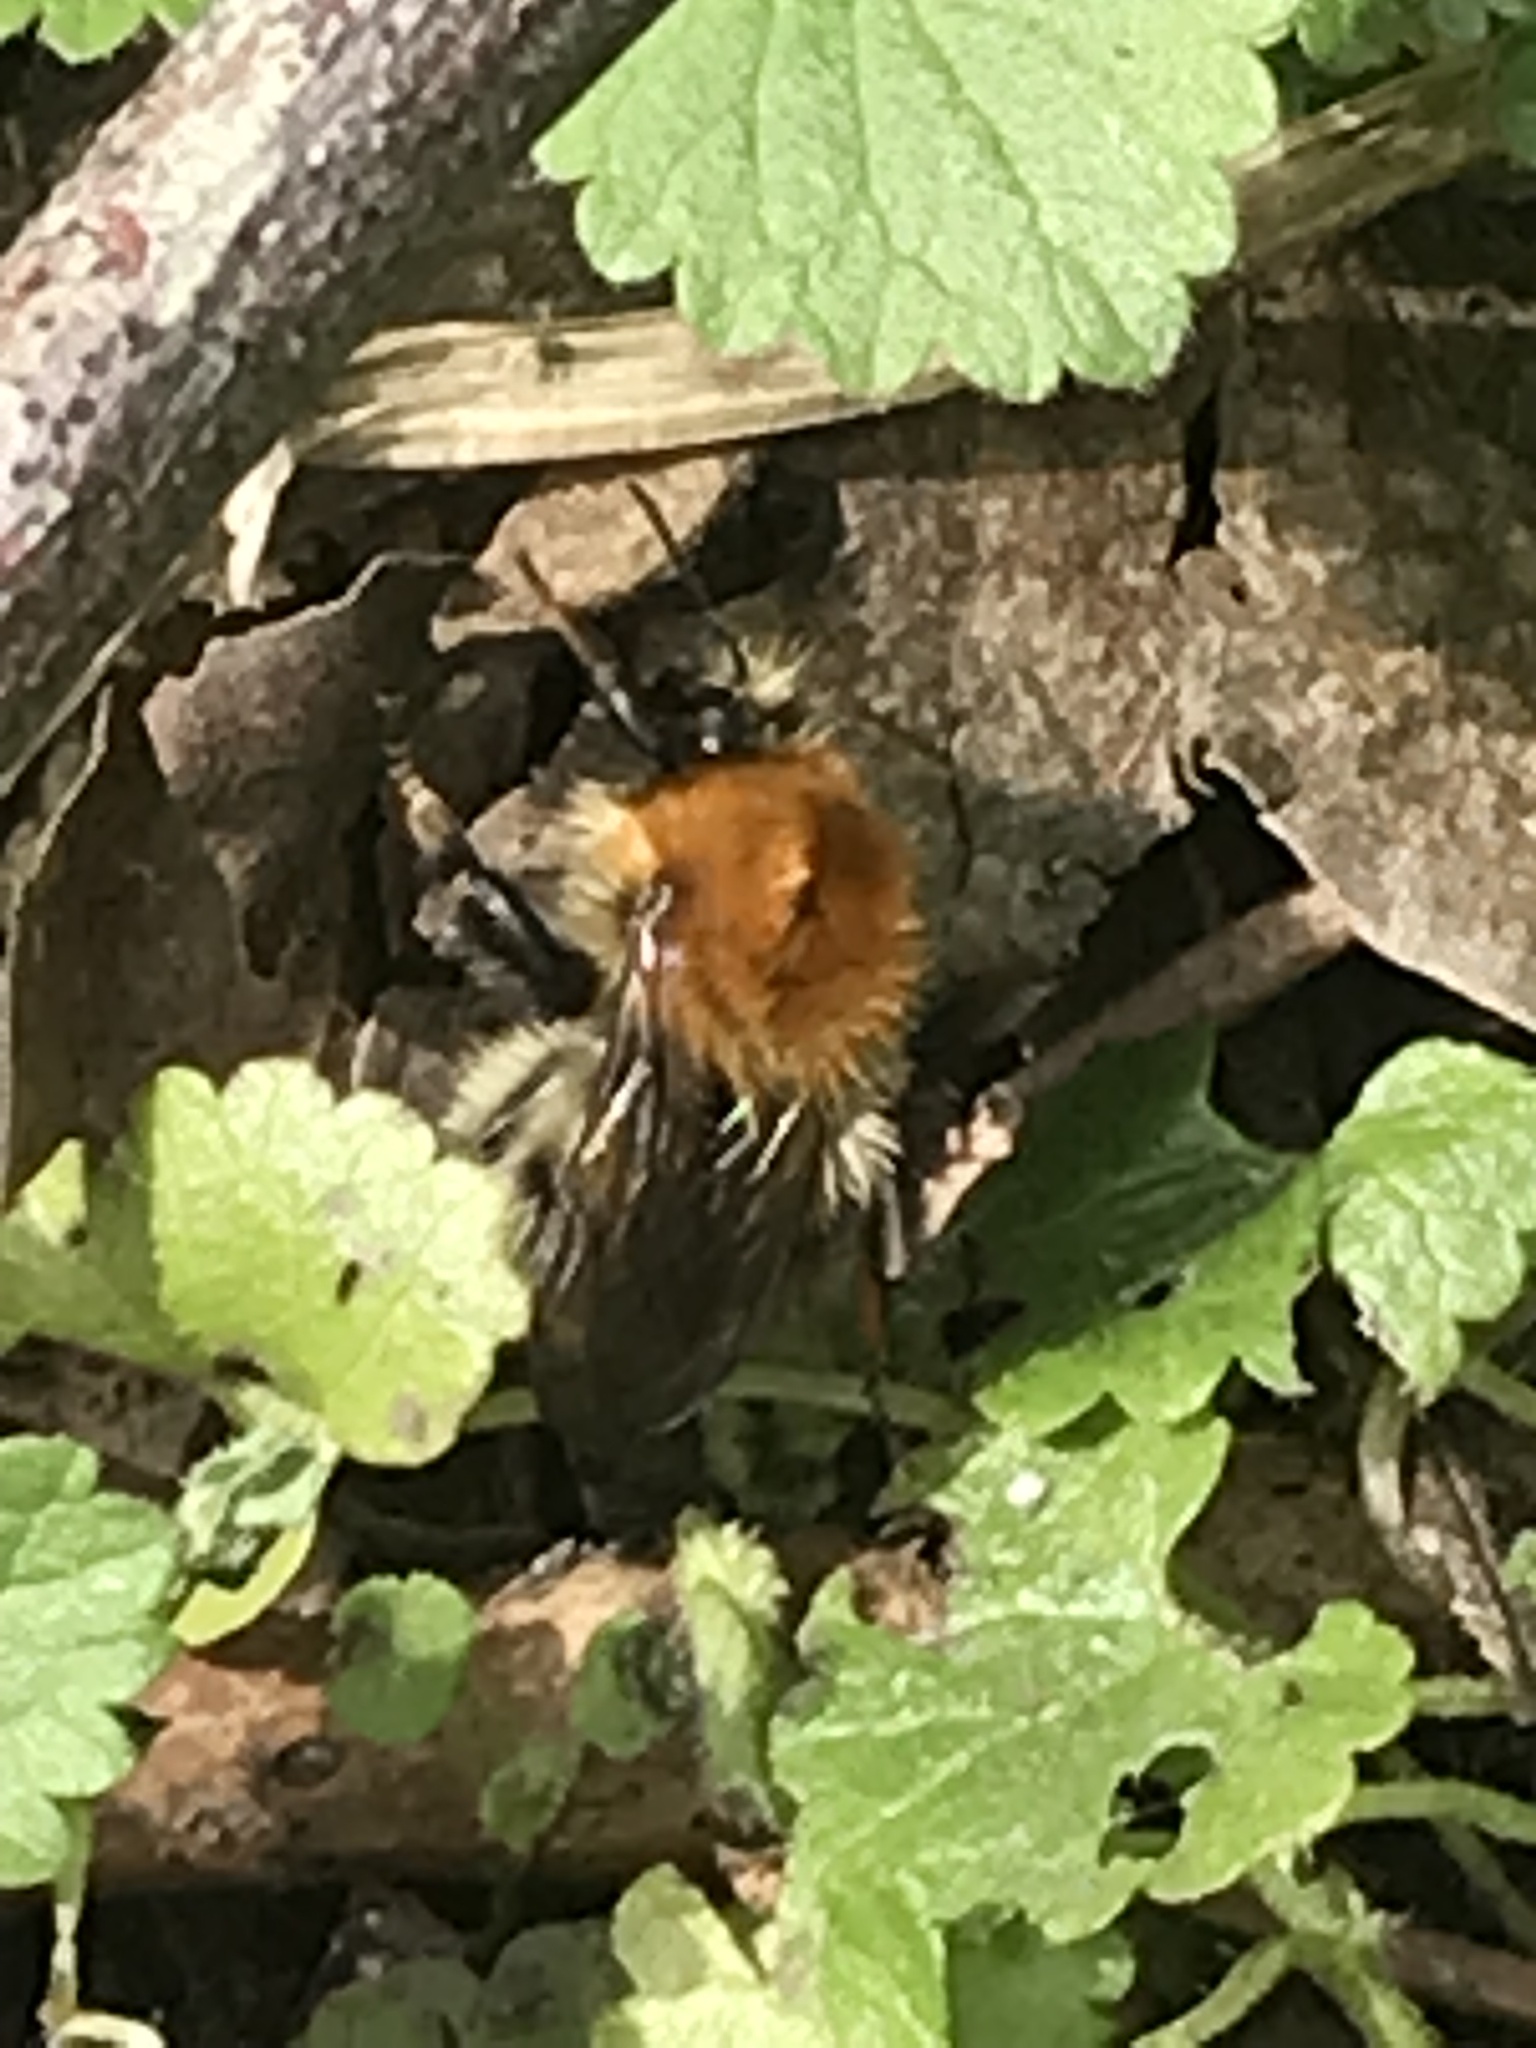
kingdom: Animalia
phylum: Arthropoda
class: Insecta
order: Hymenoptera
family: Apidae
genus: Bombus
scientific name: Bombus pascuorum
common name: Common carder bee
